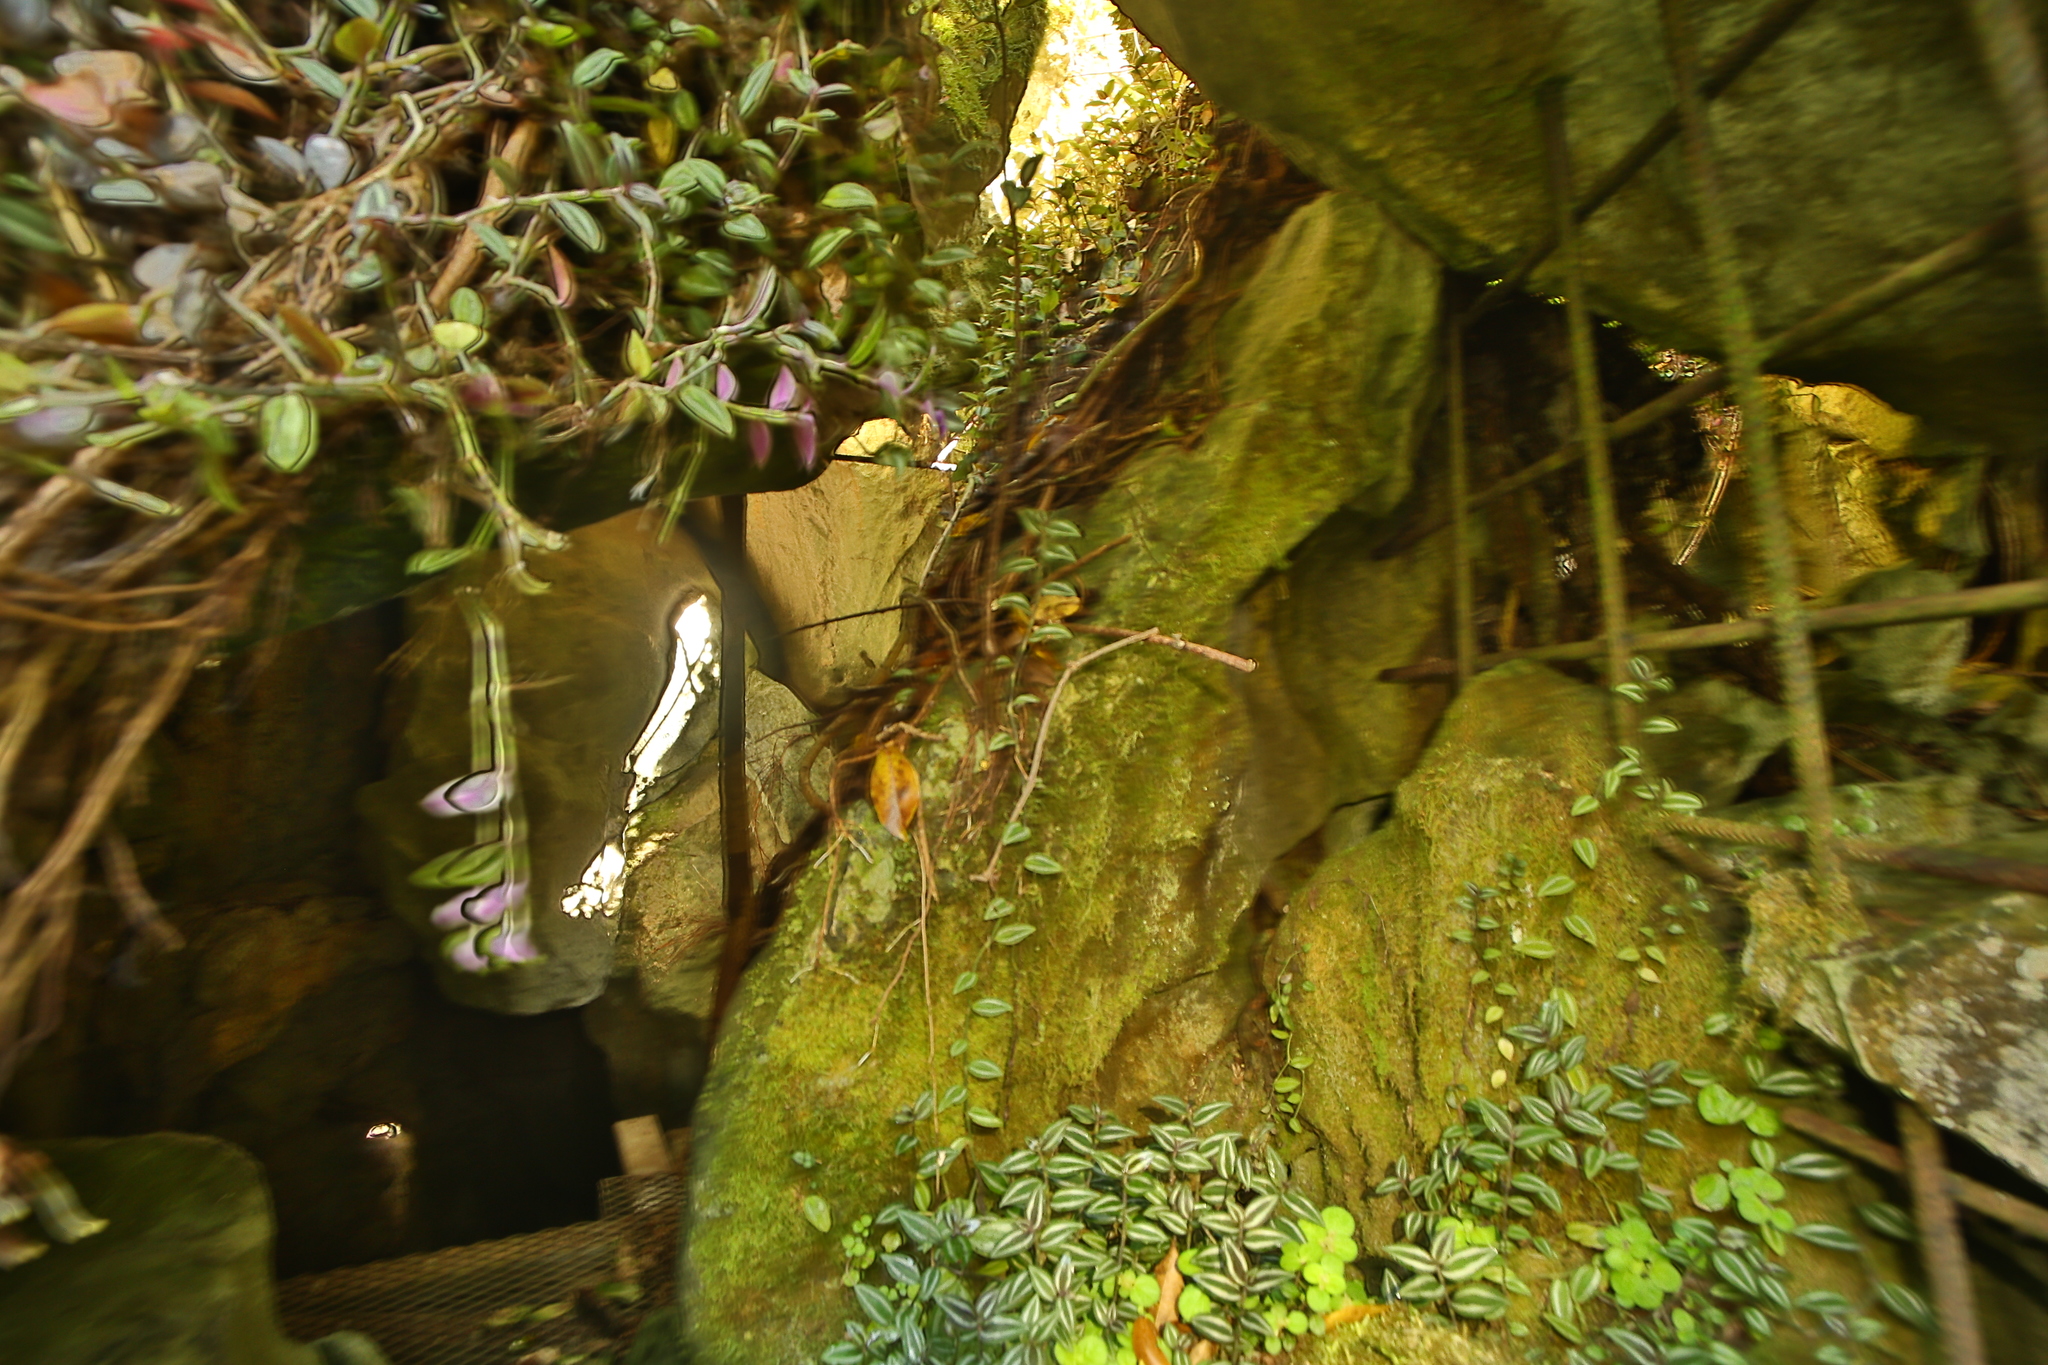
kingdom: Plantae
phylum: Tracheophyta
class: Liliopsida
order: Commelinales
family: Commelinaceae
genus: Tradescantia
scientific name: Tradescantia zebrina
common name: Inchplant
